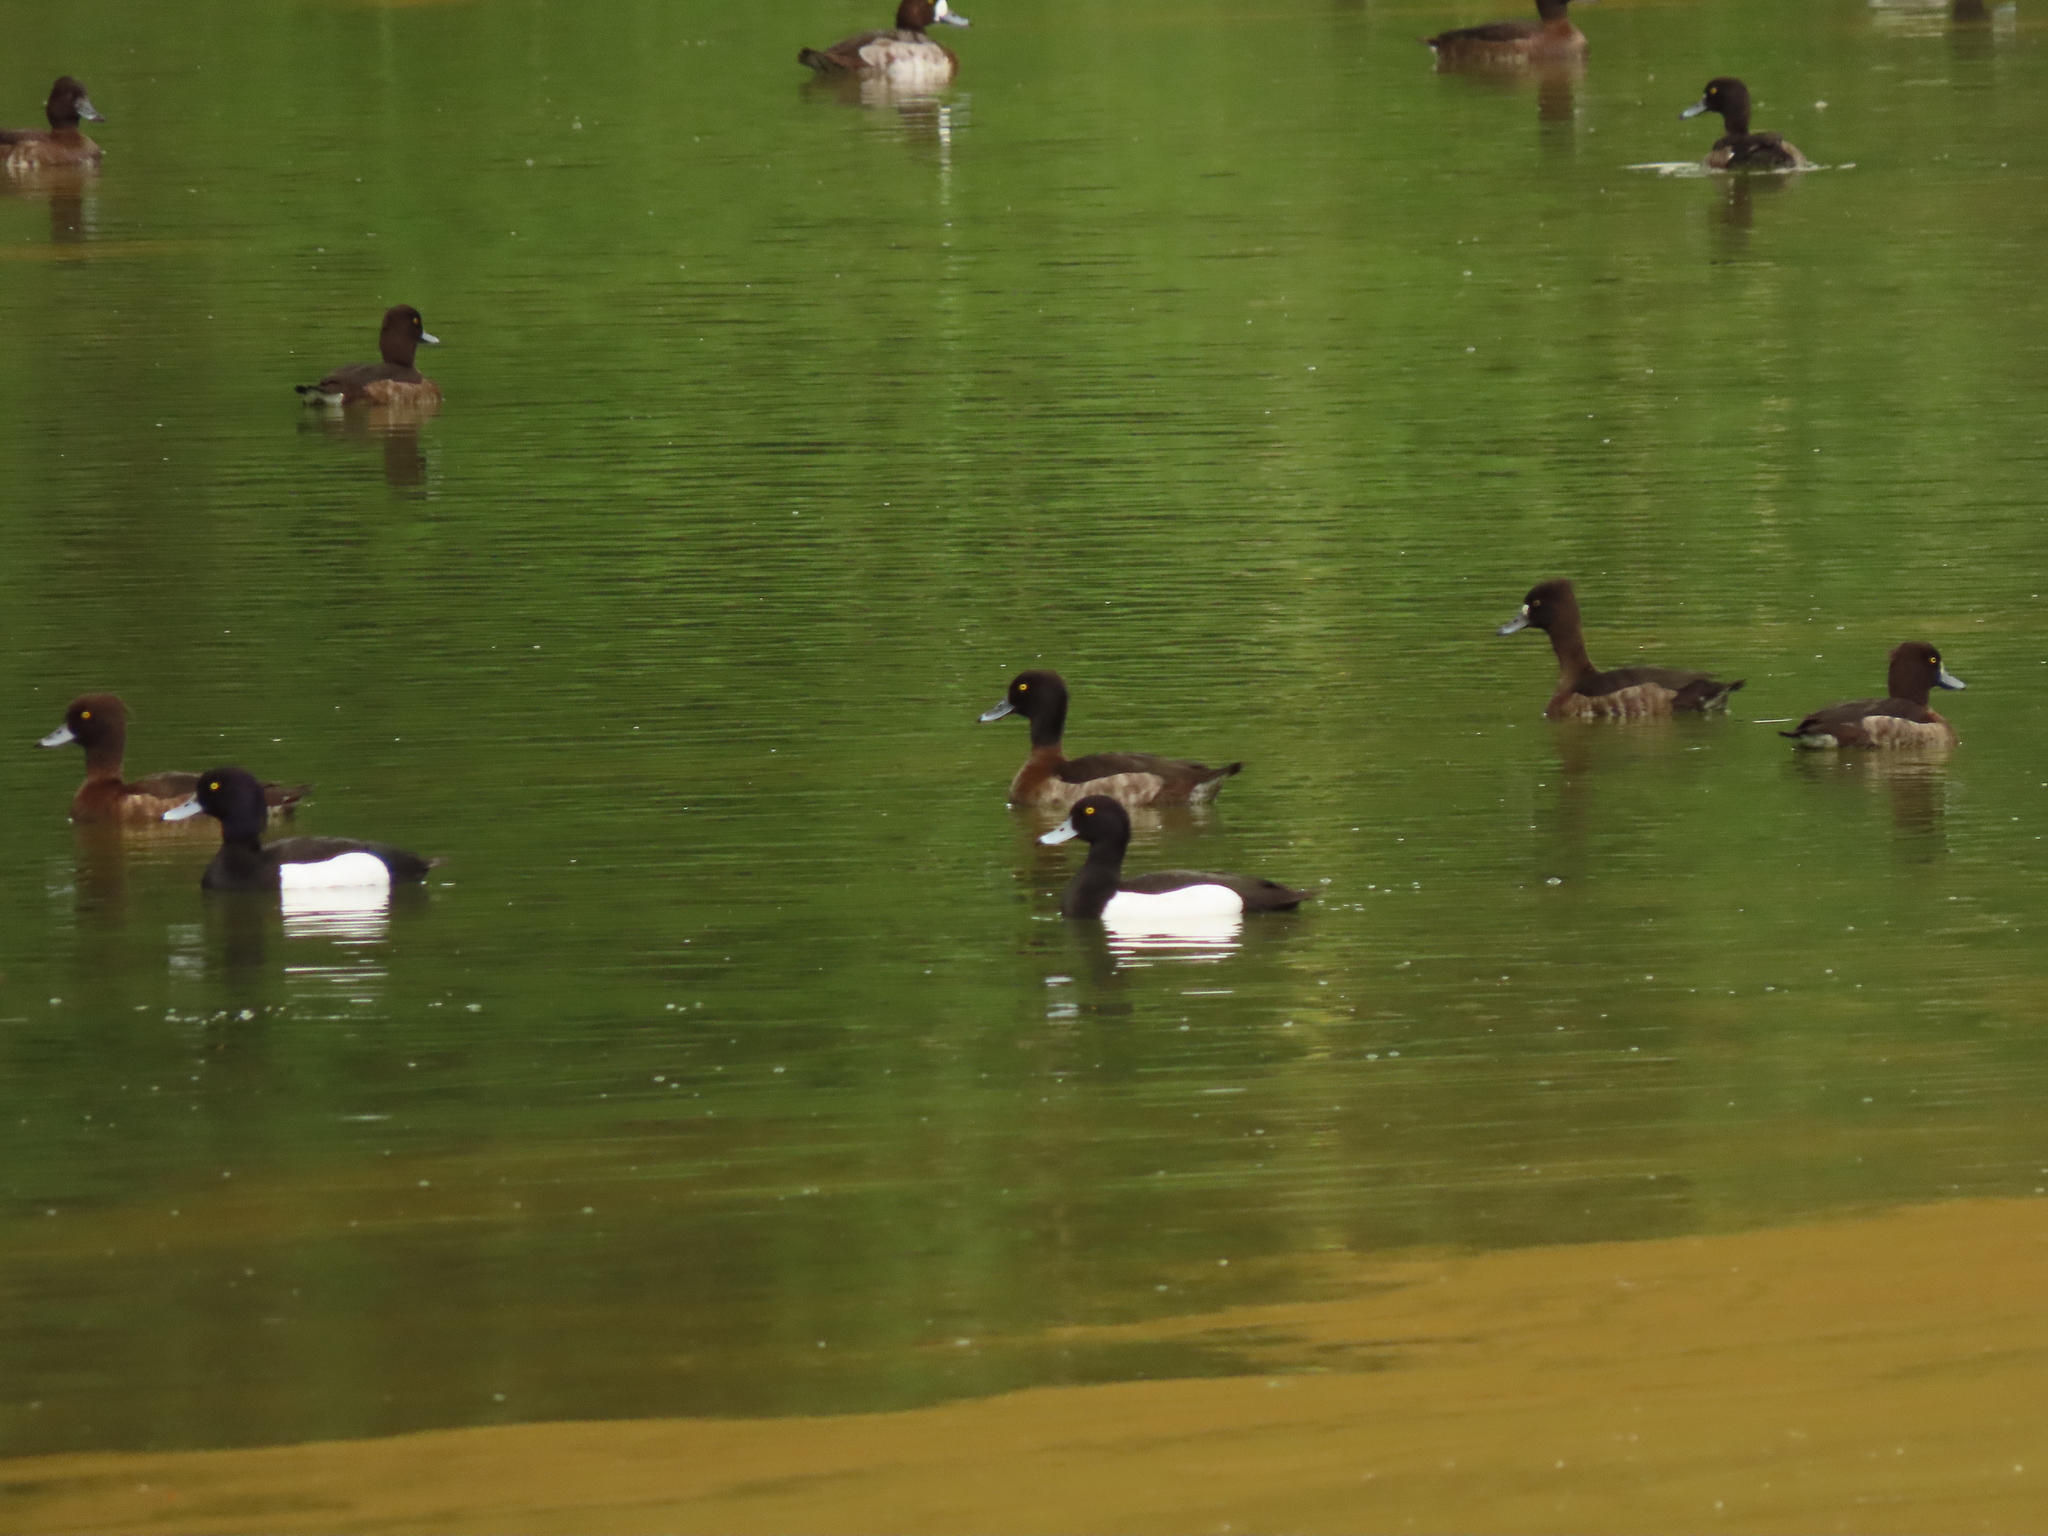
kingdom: Animalia
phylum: Chordata
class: Aves
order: Anseriformes
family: Anatidae
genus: Aythya
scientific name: Aythya fuligula
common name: Tufted duck
